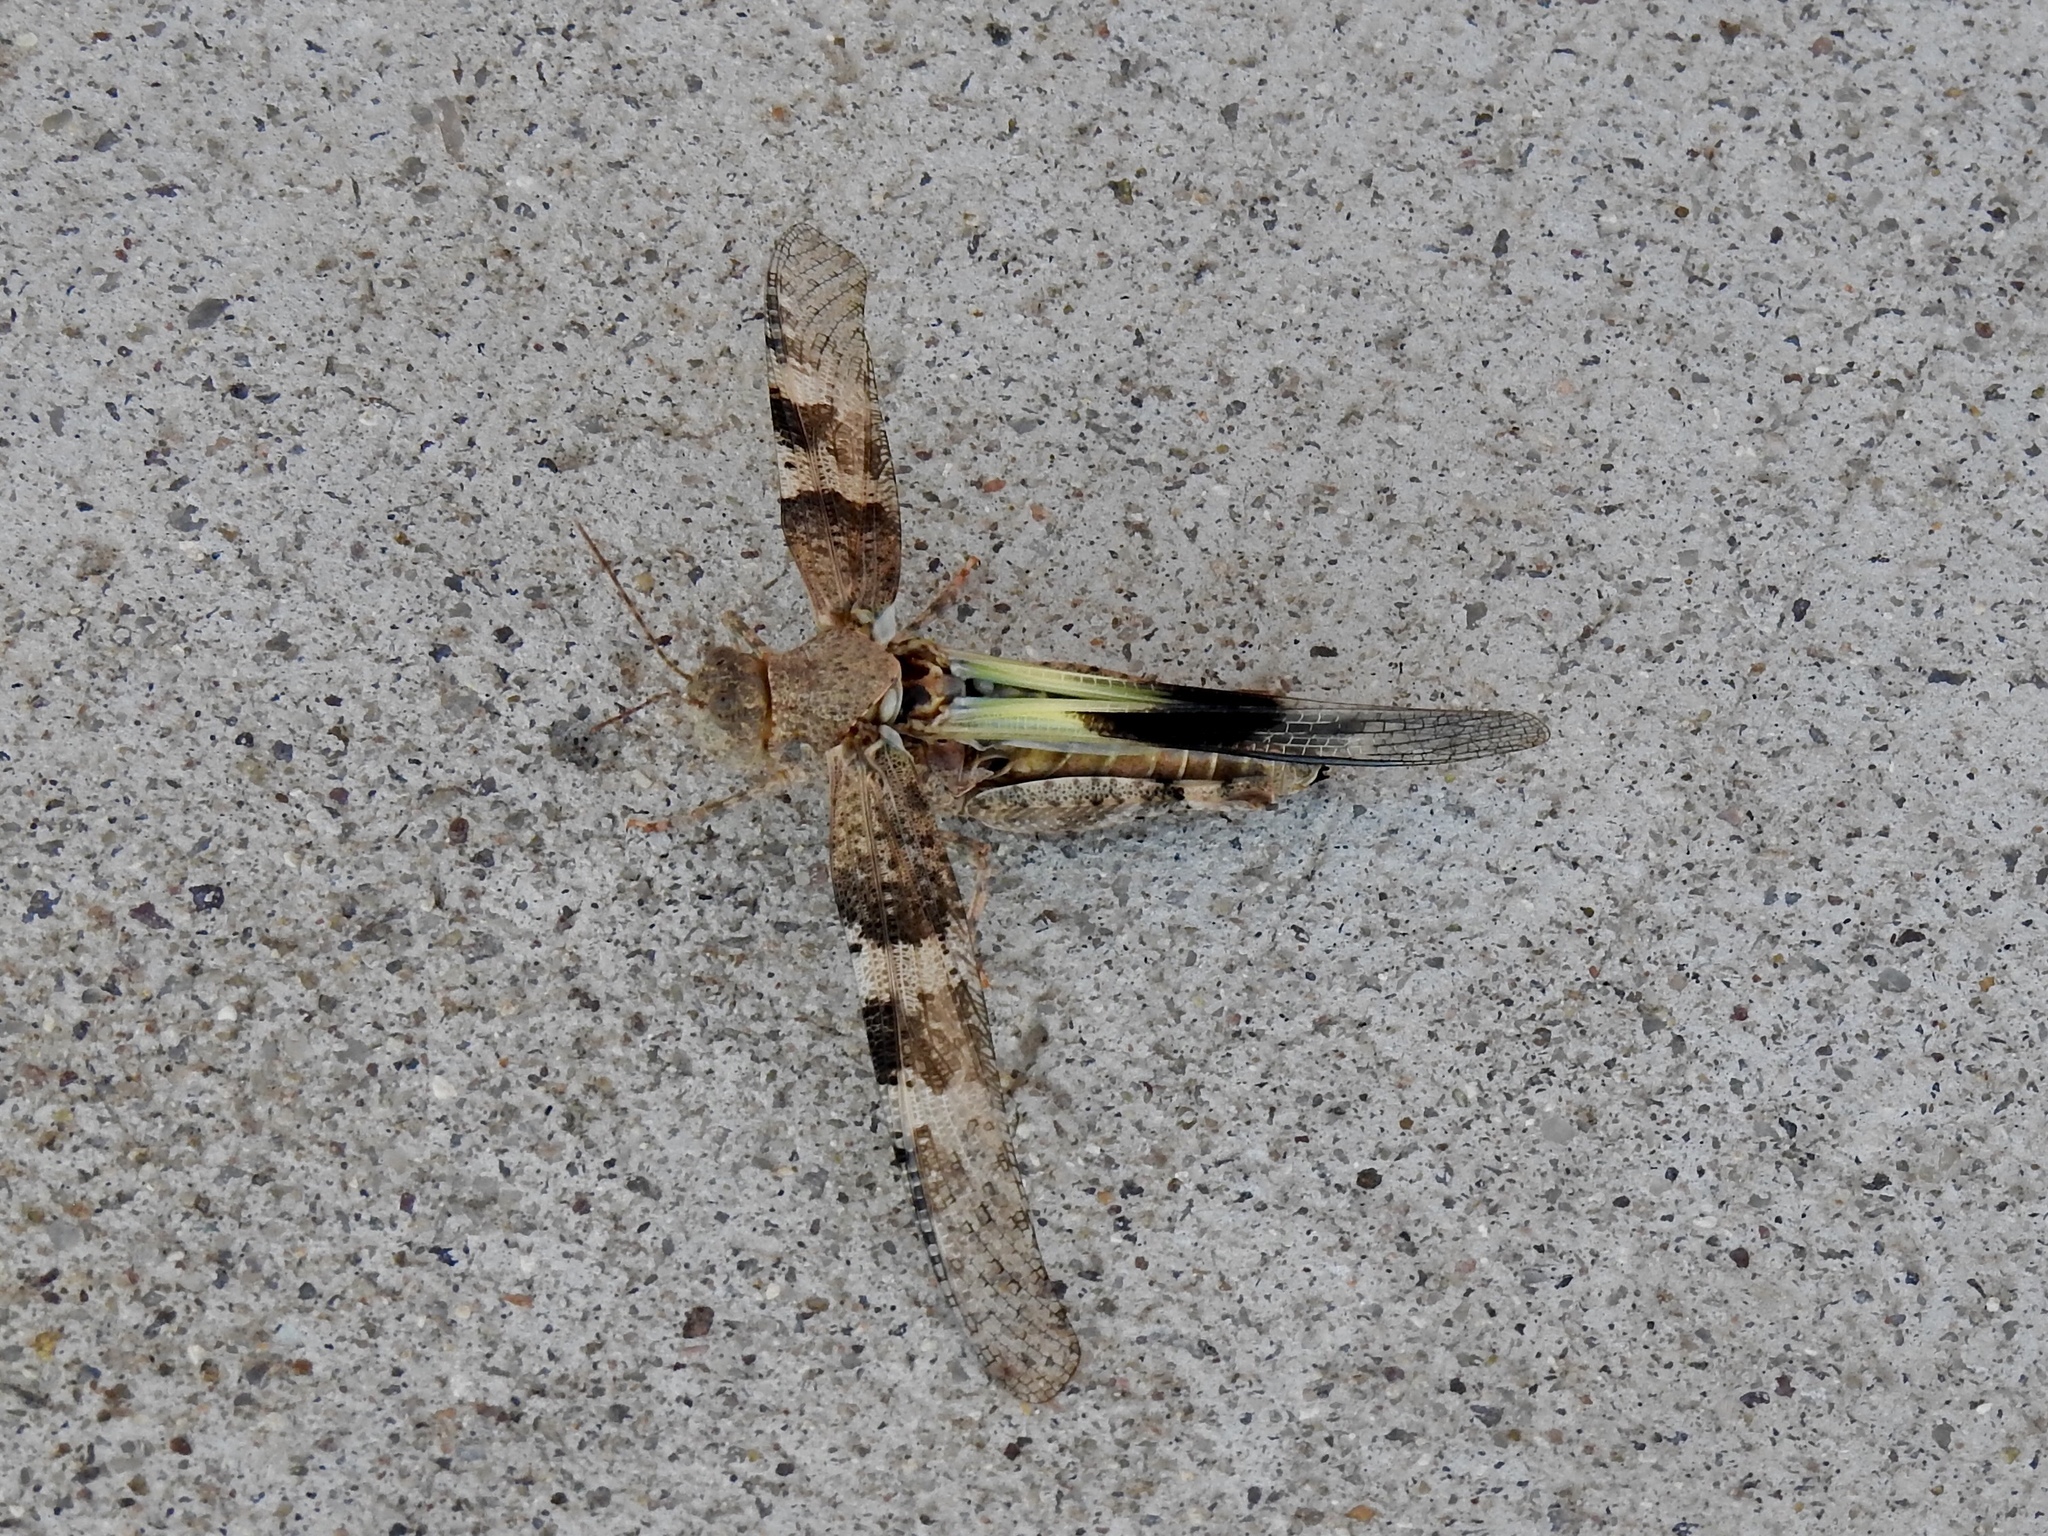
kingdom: Animalia
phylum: Arthropoda
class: Insecta
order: Orthoptera
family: Acrididae
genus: Trimerotropis
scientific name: Trimerotropis pallidipennis
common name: Pallid-winged grasshopper
